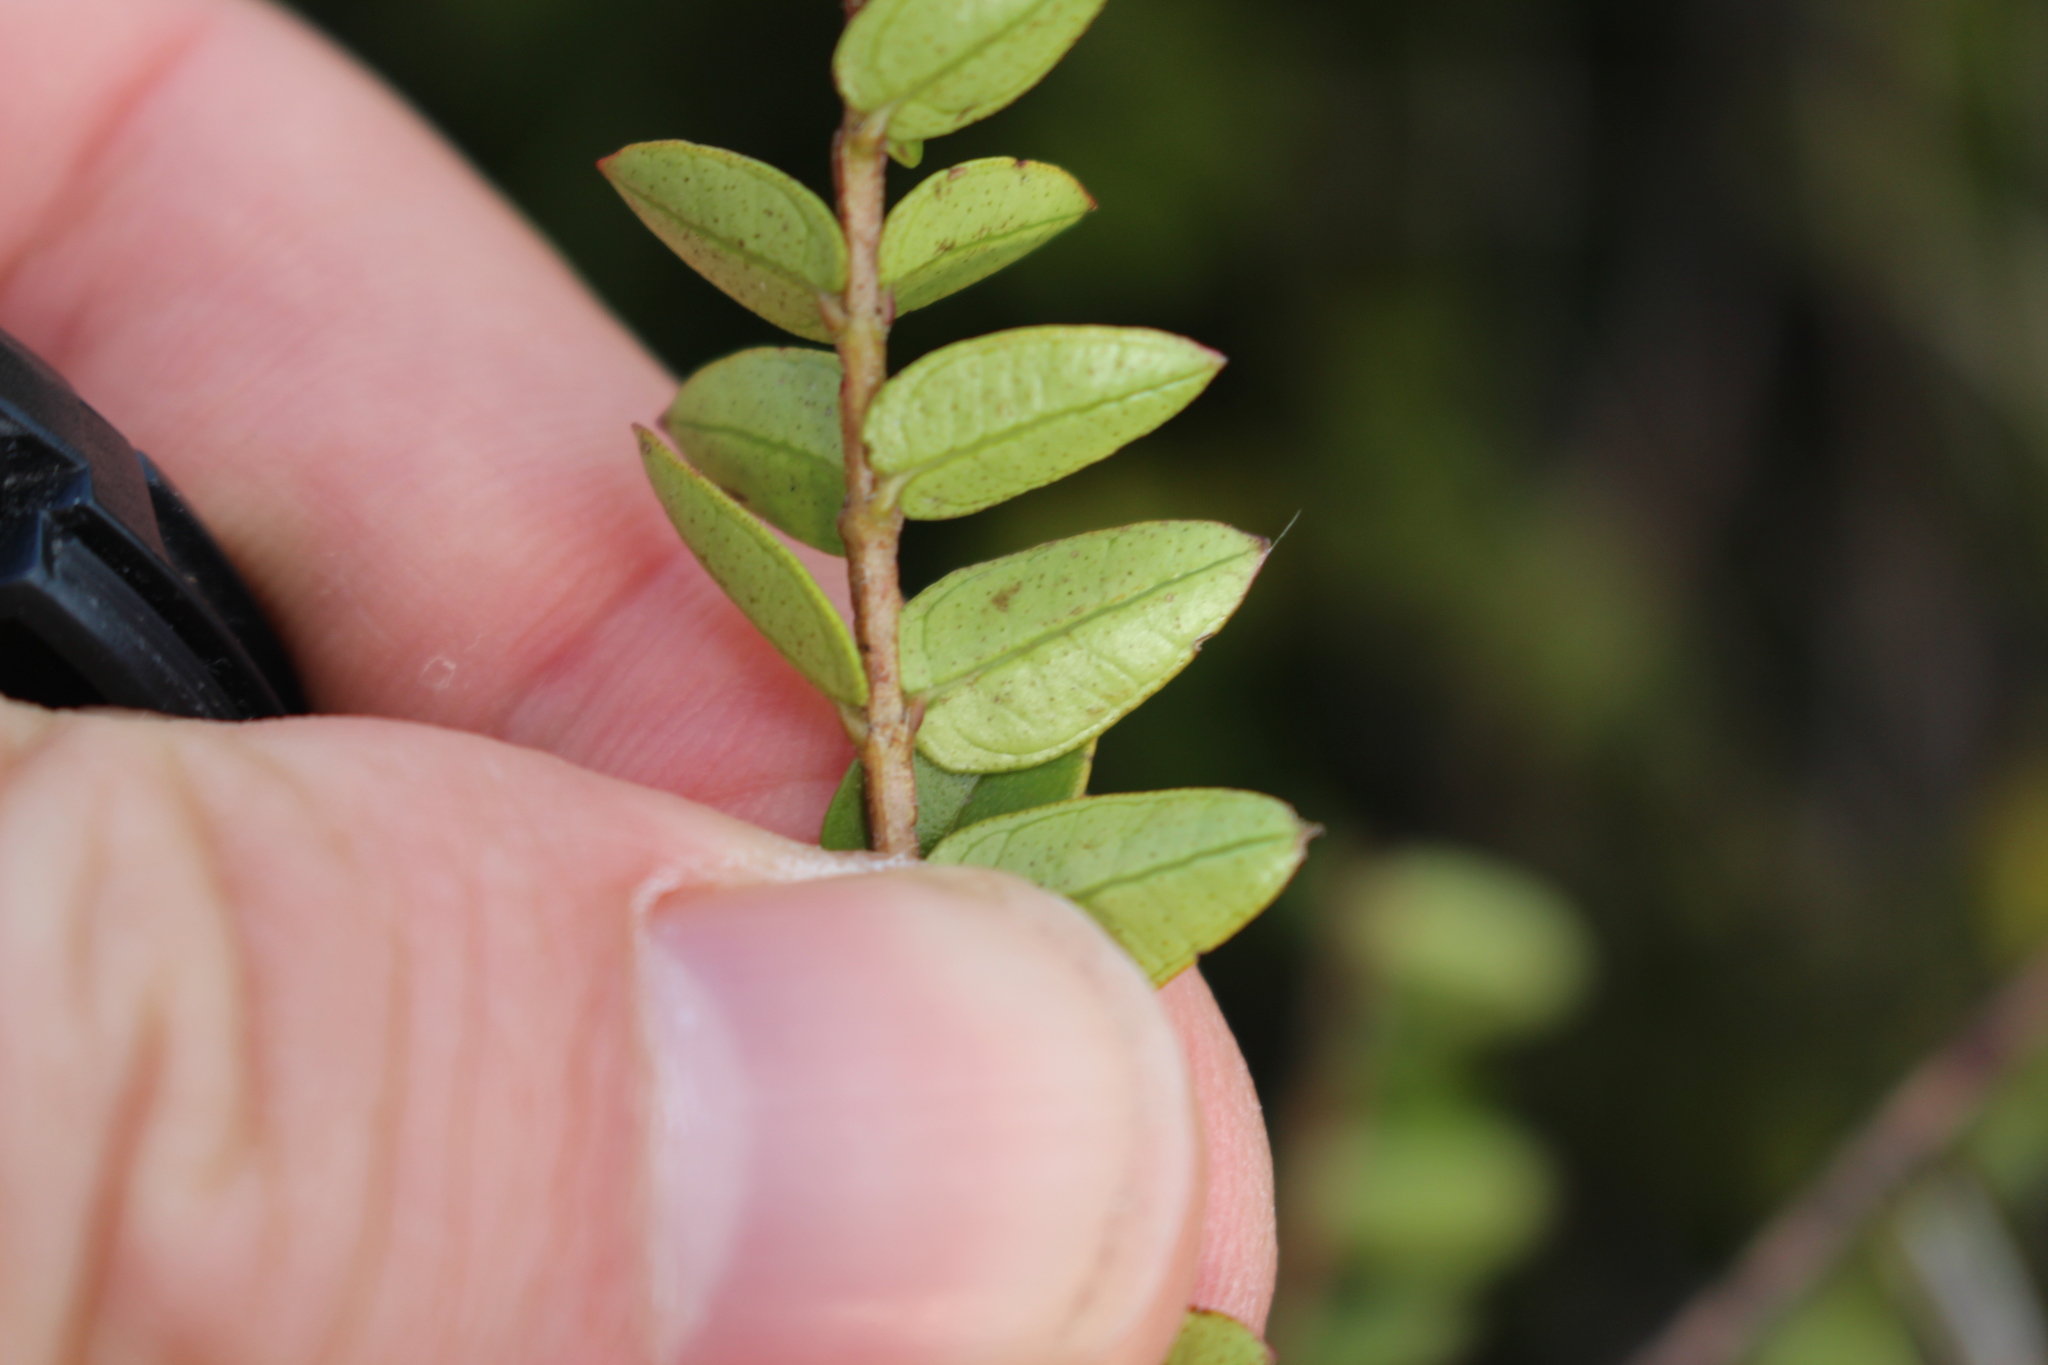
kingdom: Plantae
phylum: Tracheophyta
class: Magnoliopsida
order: Myrtales
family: Myrtaceae
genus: Metrosideros
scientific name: Metrosideros diffusa
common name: Small ratavine
